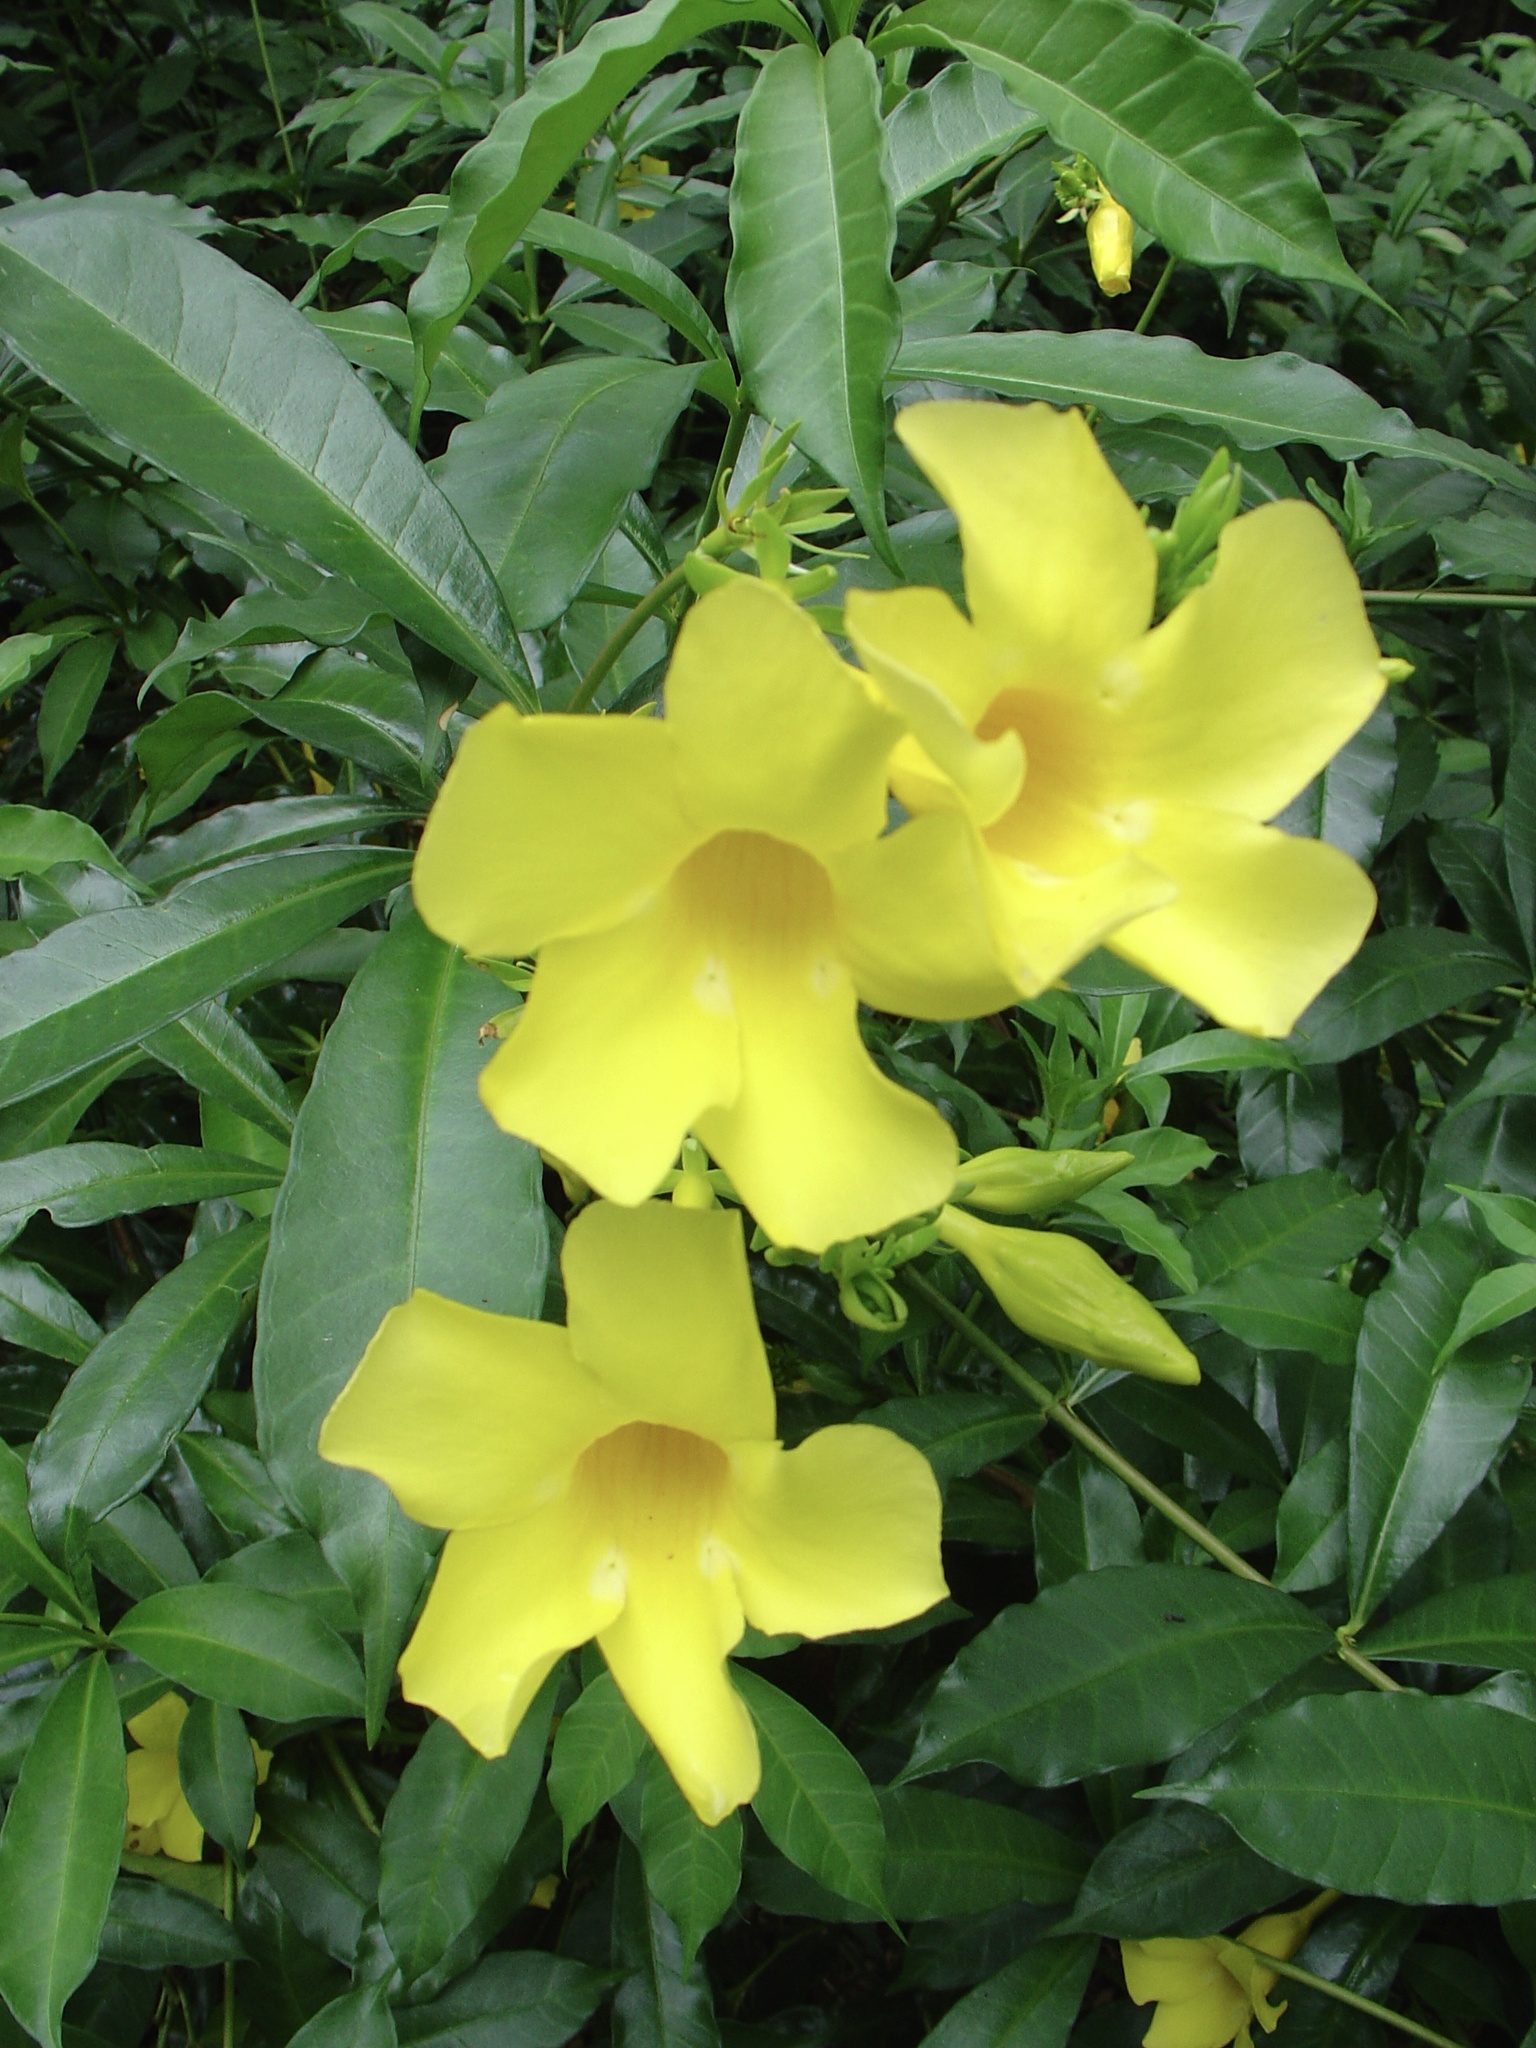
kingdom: Plantae
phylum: Tracheophyta
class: Magnoliopsida
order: Gentianales
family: Apocynaceae
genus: Allamanda
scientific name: Allamanda cathartica
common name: Golden trumpet
